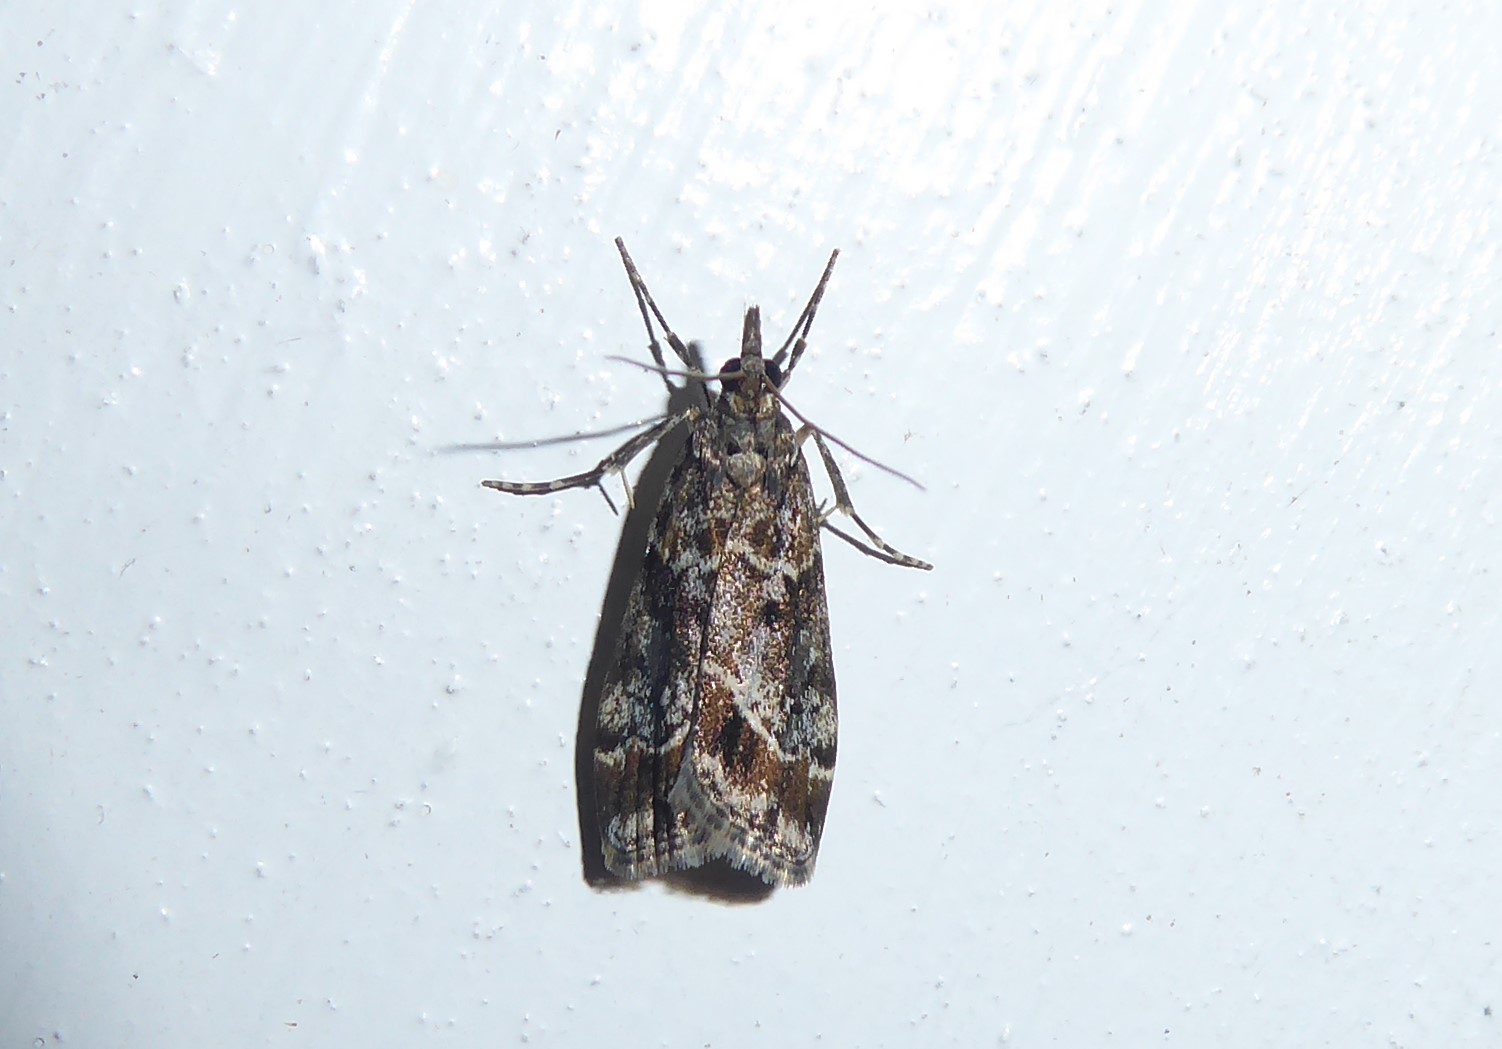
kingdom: Animalia
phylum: Arthropoda
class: Insecta
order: Lepidoptera
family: Crambidae
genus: Eudonia
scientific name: Eudonia legnota
